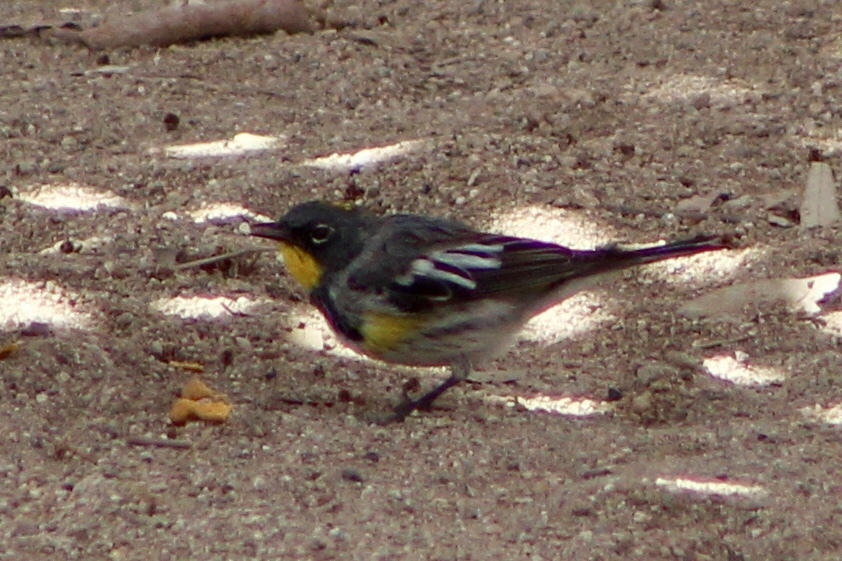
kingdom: Animalia
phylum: Chordata
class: Aves
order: Passeriformes
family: Parulidae
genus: Setophaga
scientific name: Setophaga coronata
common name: Myrtle warbler
